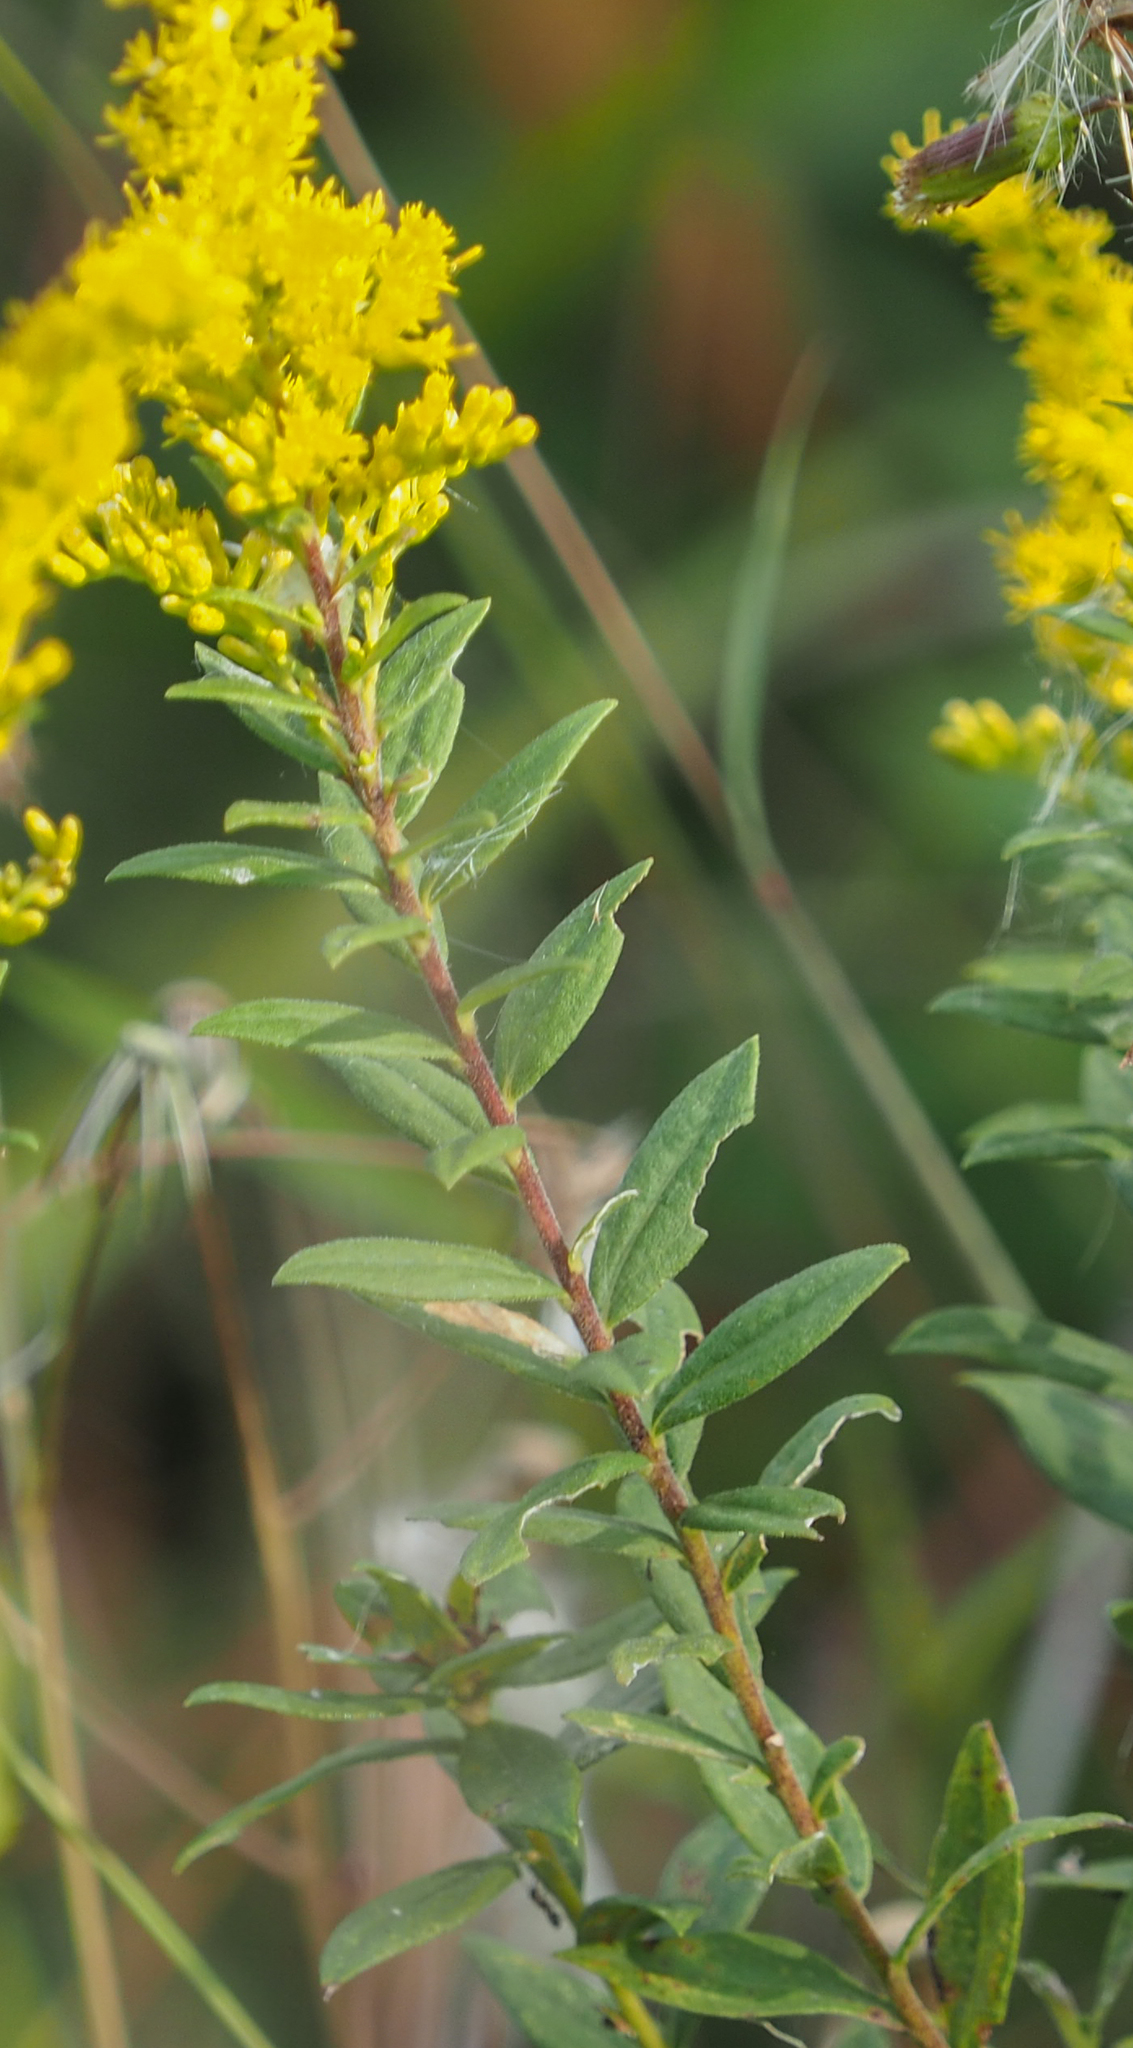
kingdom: Plantae
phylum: Tracheophyta
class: Magnoliopsida
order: Asterales
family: Asteraceae
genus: Solidago
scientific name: Solidago altissima
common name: Late goldenrod
